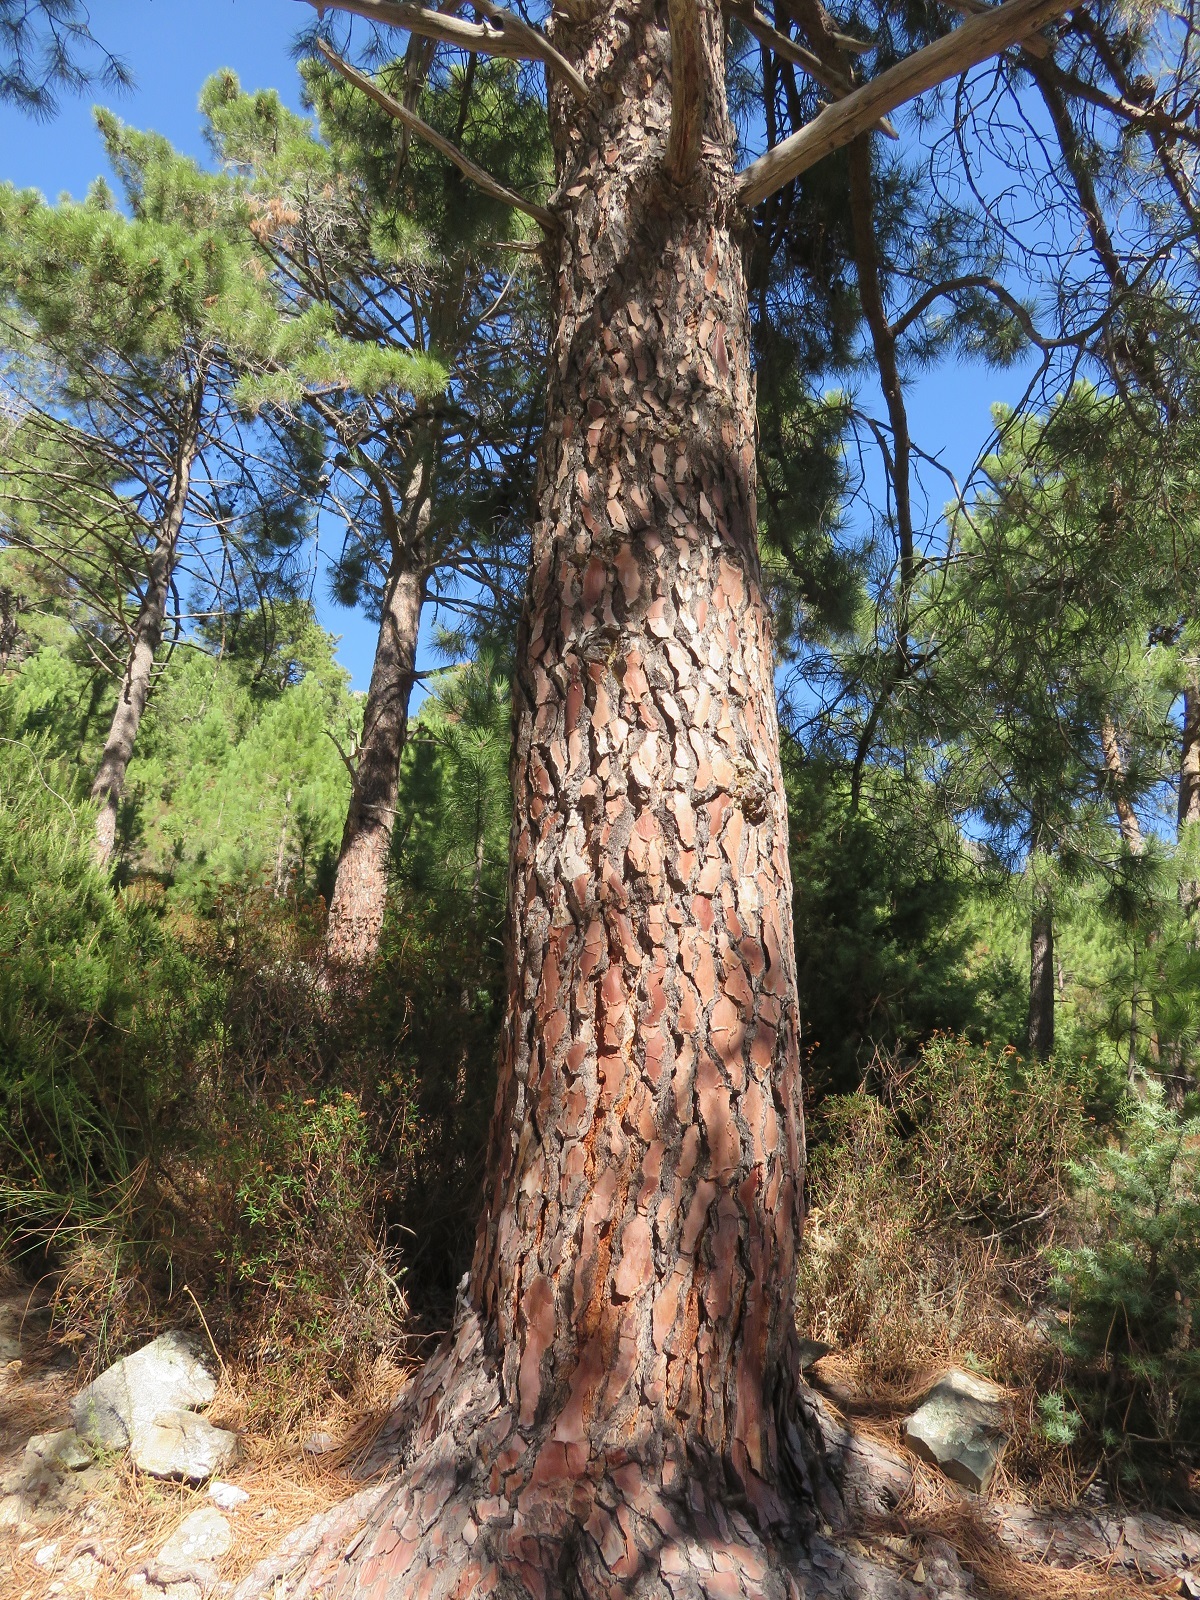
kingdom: Plantae
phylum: Tracheophyta
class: Pinopsida
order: Pinales
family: Pinaceae
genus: Pinus
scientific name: Pinus pinaster
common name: Maritime pine
